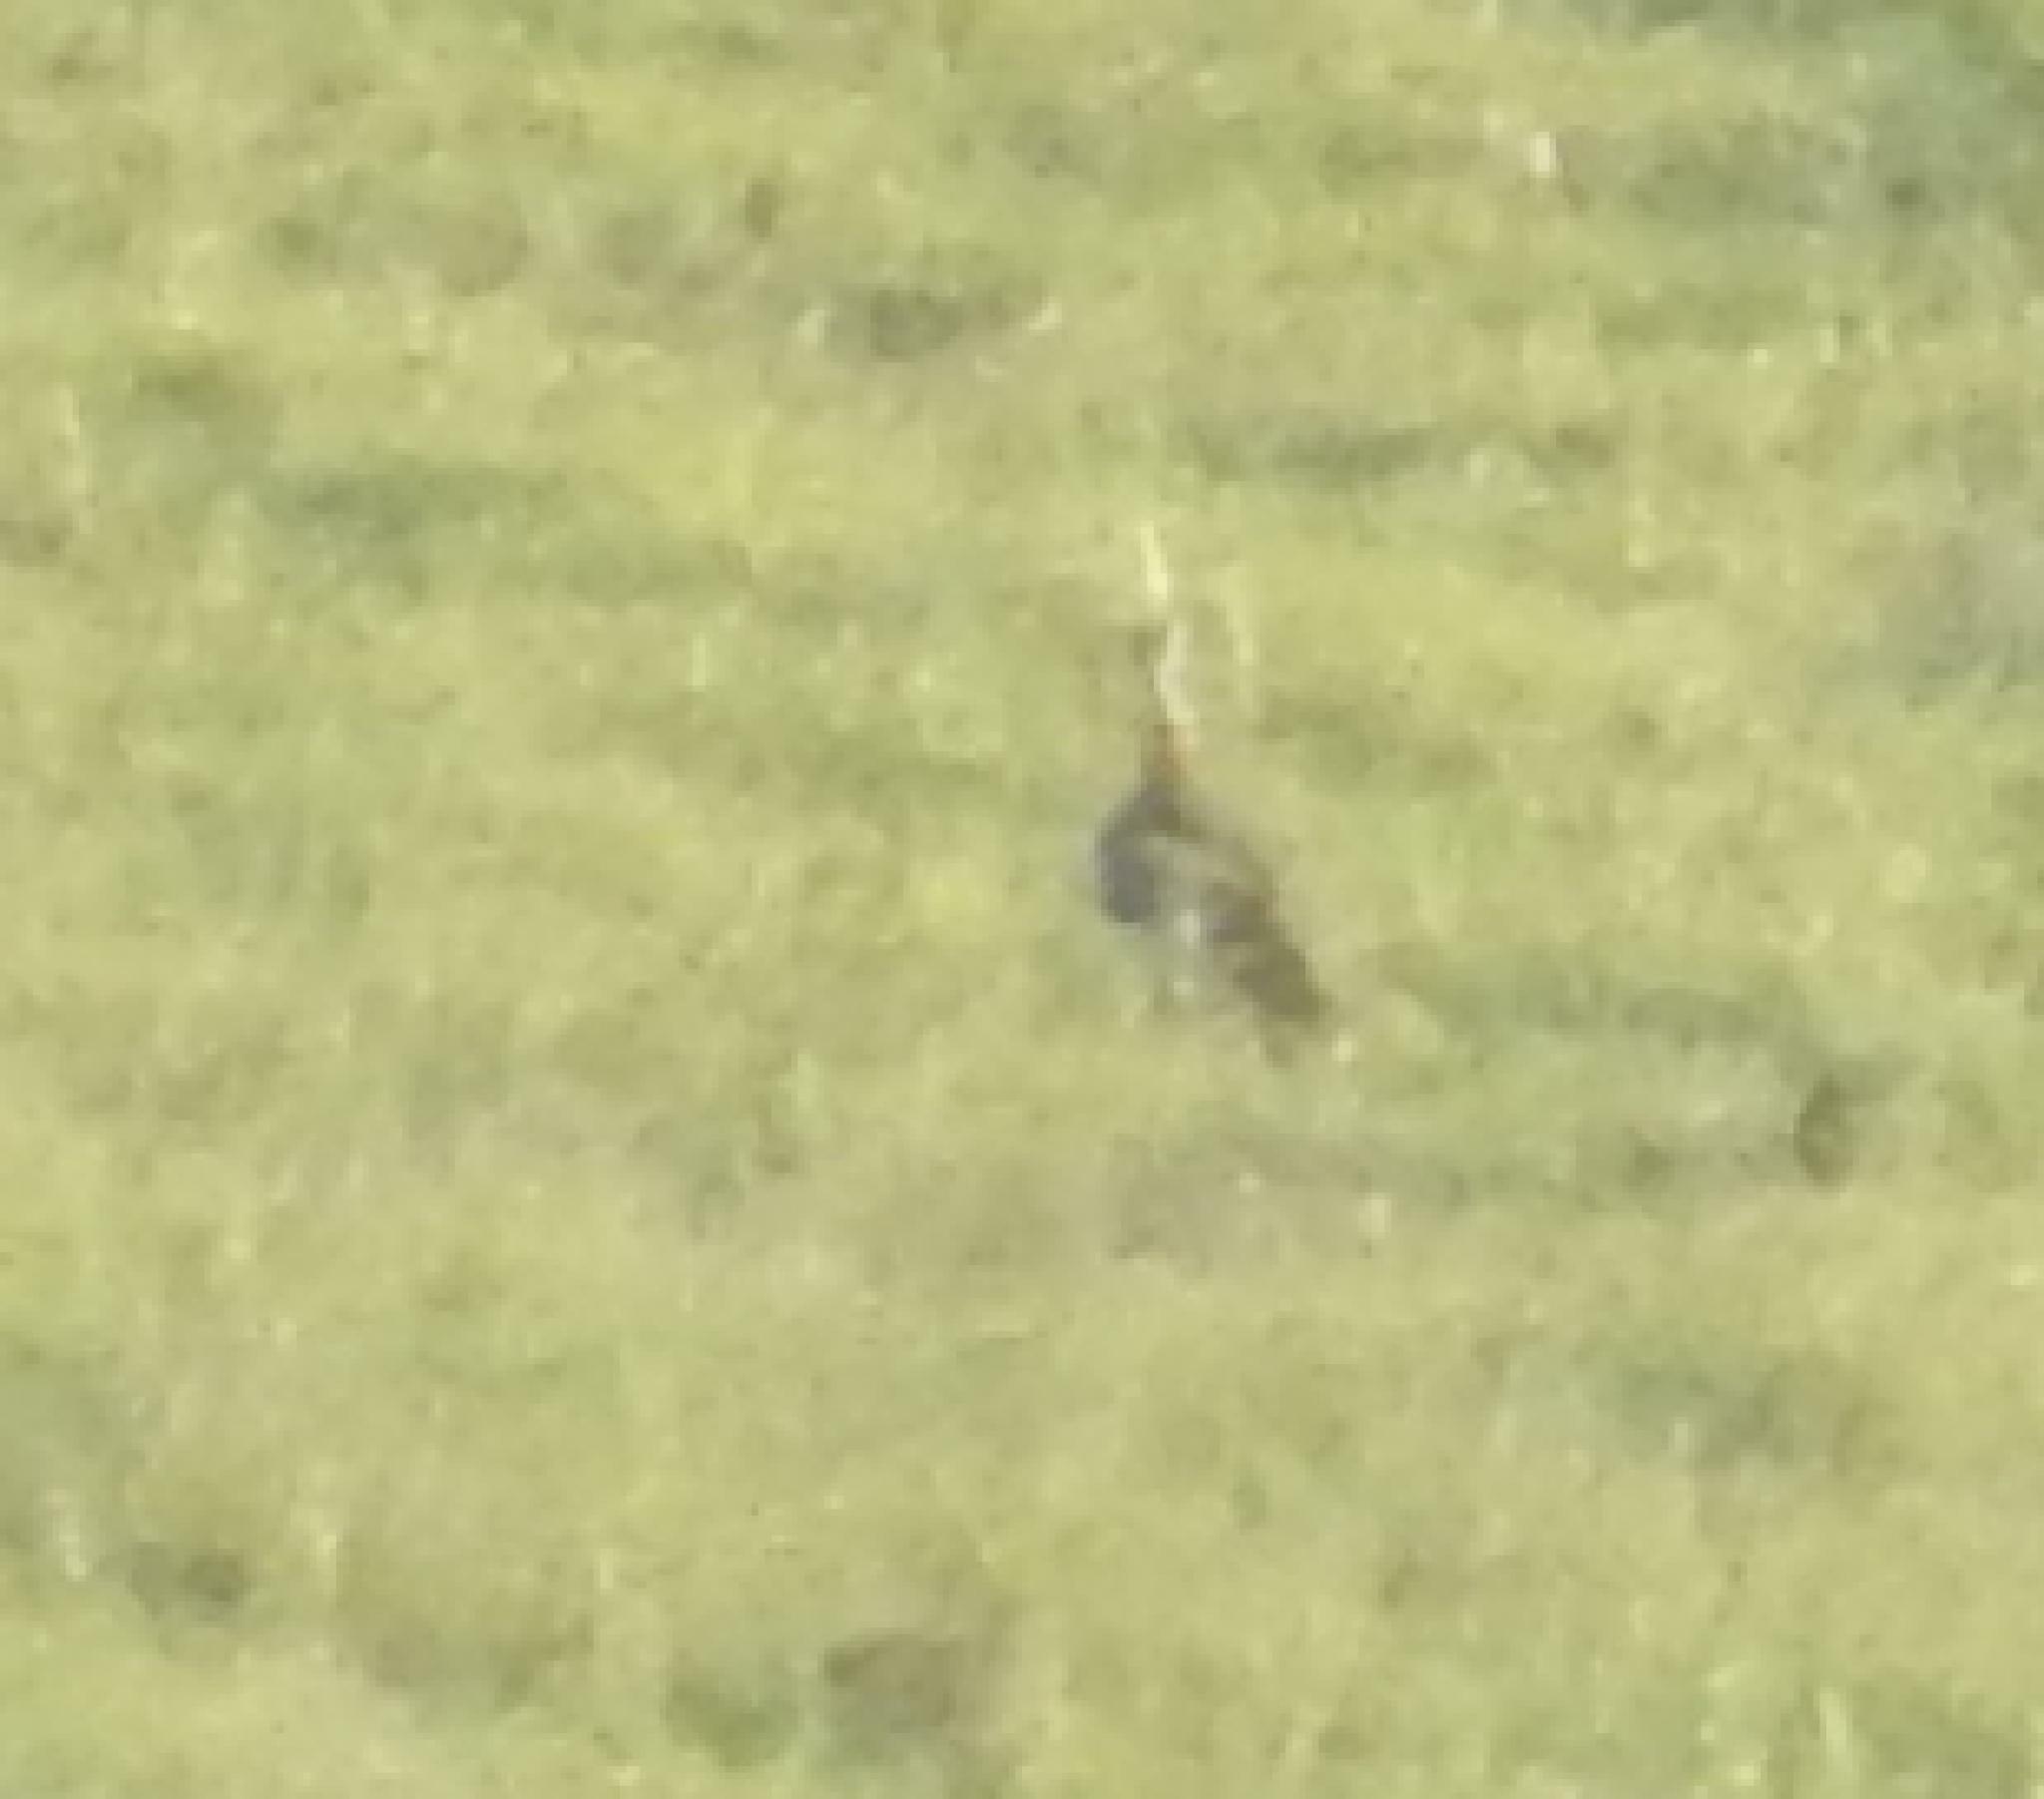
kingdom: Animalia
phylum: Chordata
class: Aves
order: Otidiformes
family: Otididae
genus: Neotis
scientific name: Neotis denhami
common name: Denham's bustard
